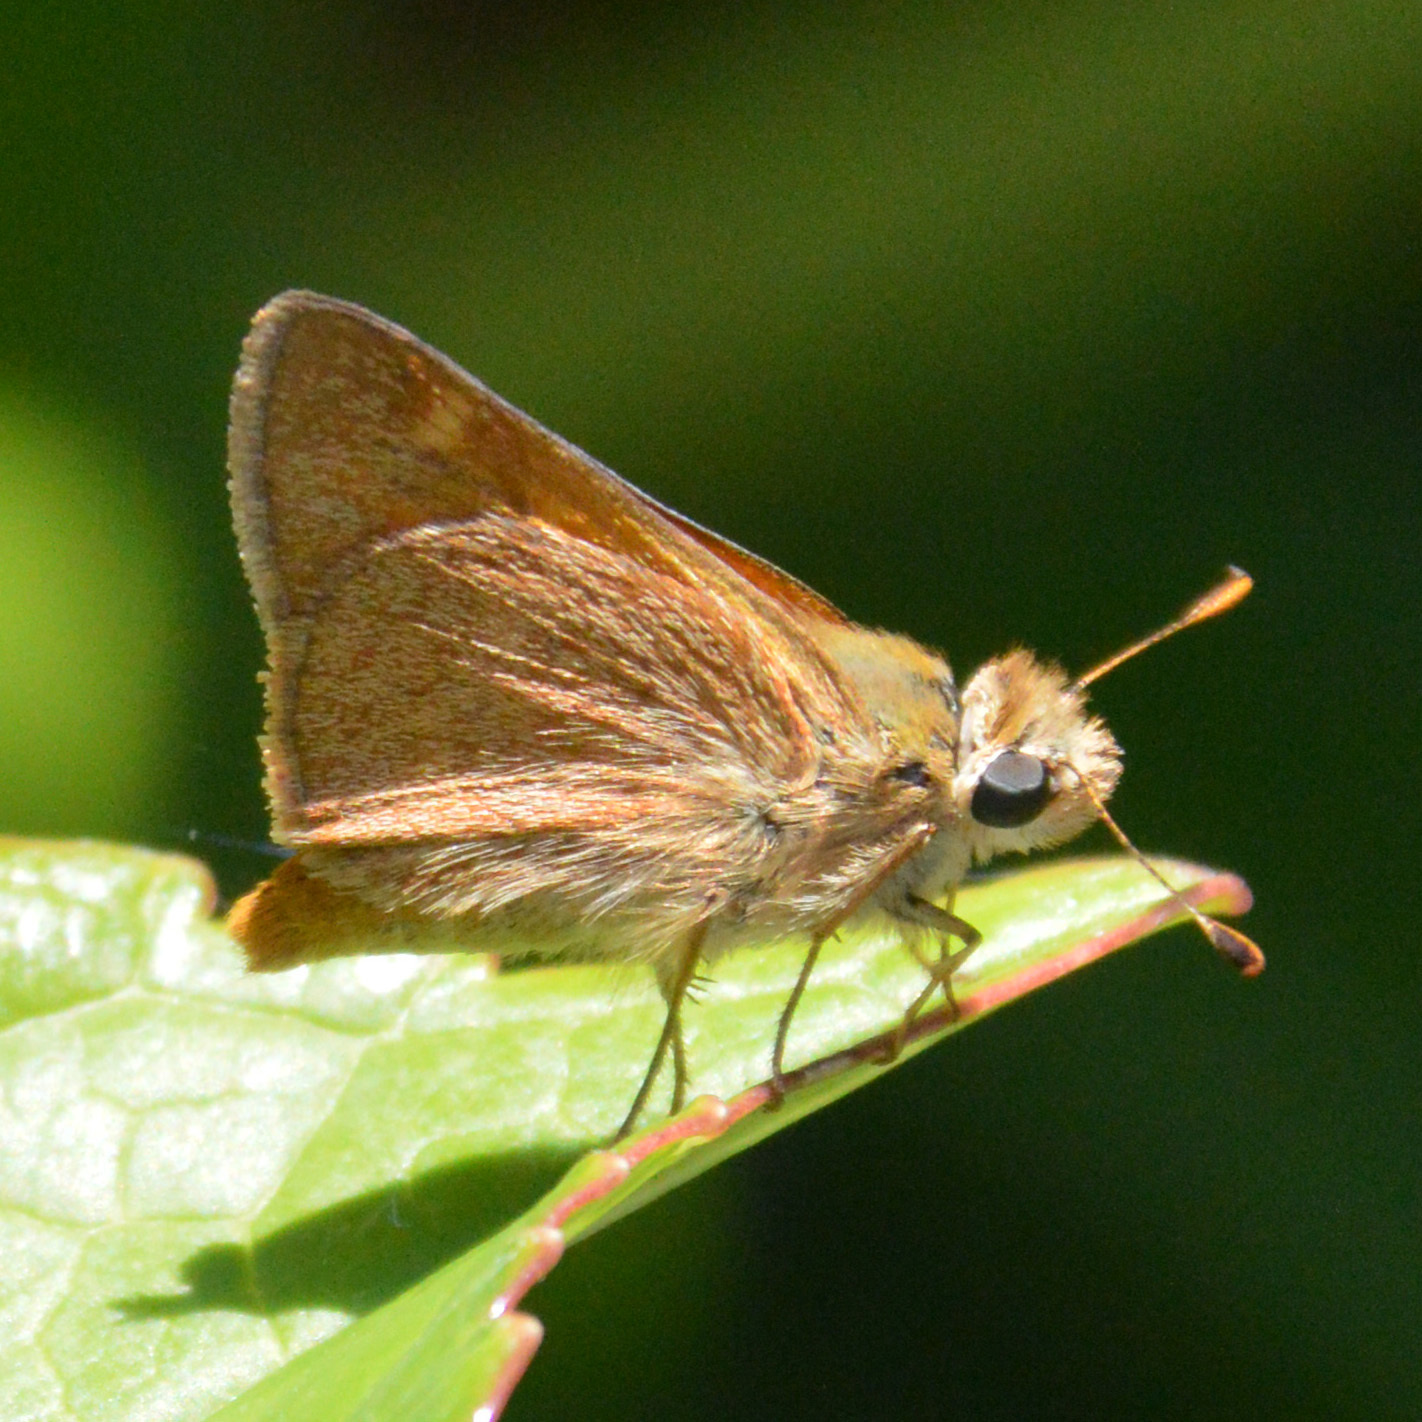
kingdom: Animalia
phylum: Arthropoda
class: Insecta
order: Lepidoptera
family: Hesperiidae
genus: Ochlodes
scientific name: Ochlodes sylvanoides
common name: Woodland skipper
